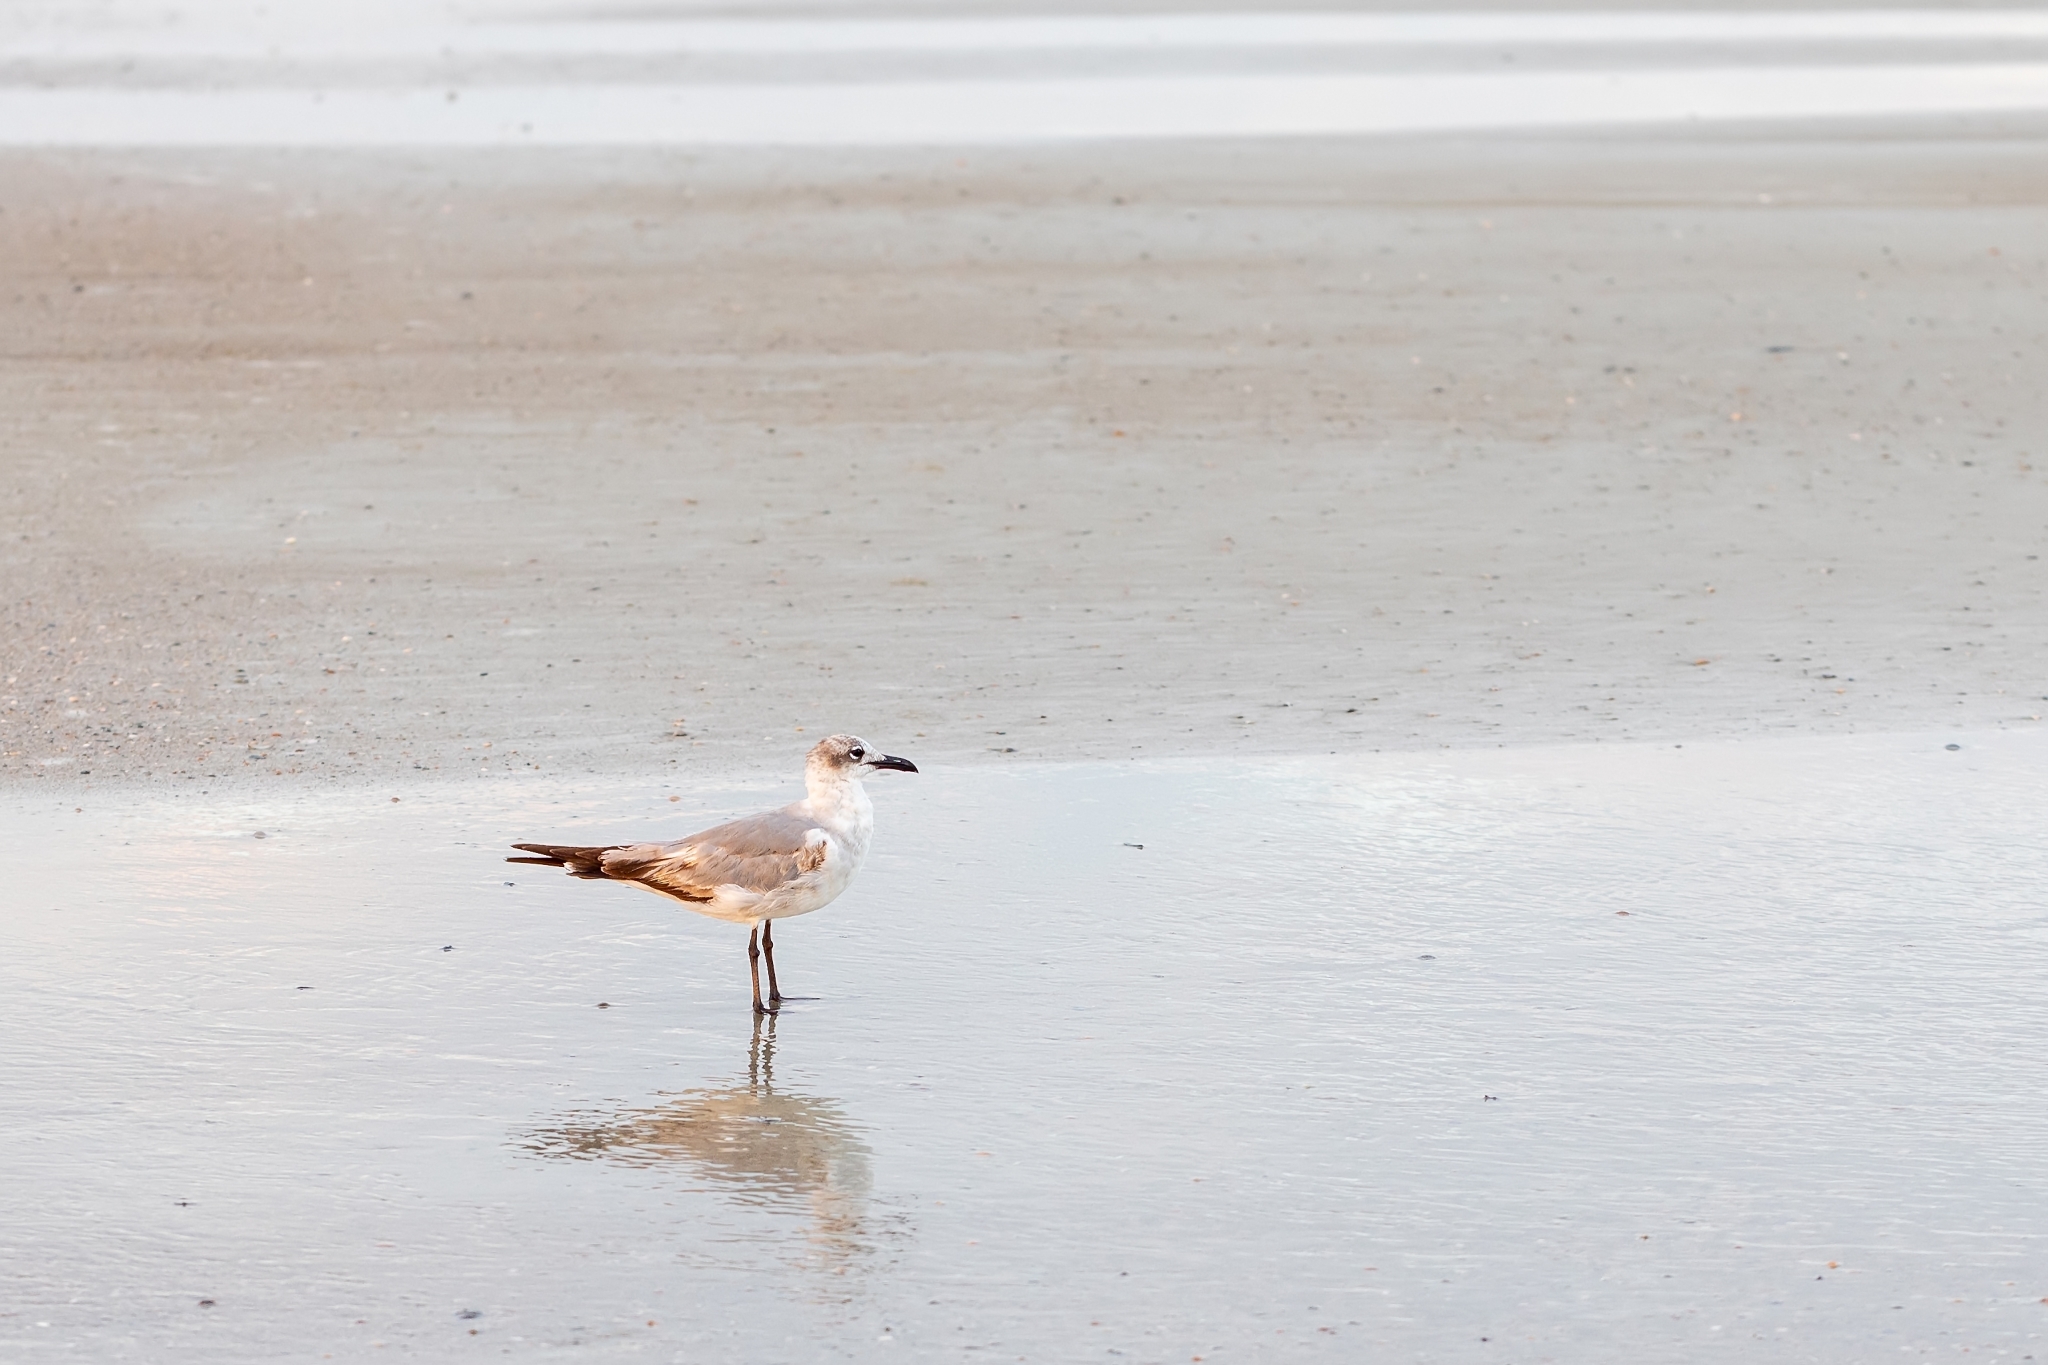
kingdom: Animalia
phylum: Chordata
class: Aves
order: Charadriiformes
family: Laridae
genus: Leucophaeus
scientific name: Leucophaeus atricilla
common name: Laughing gull
